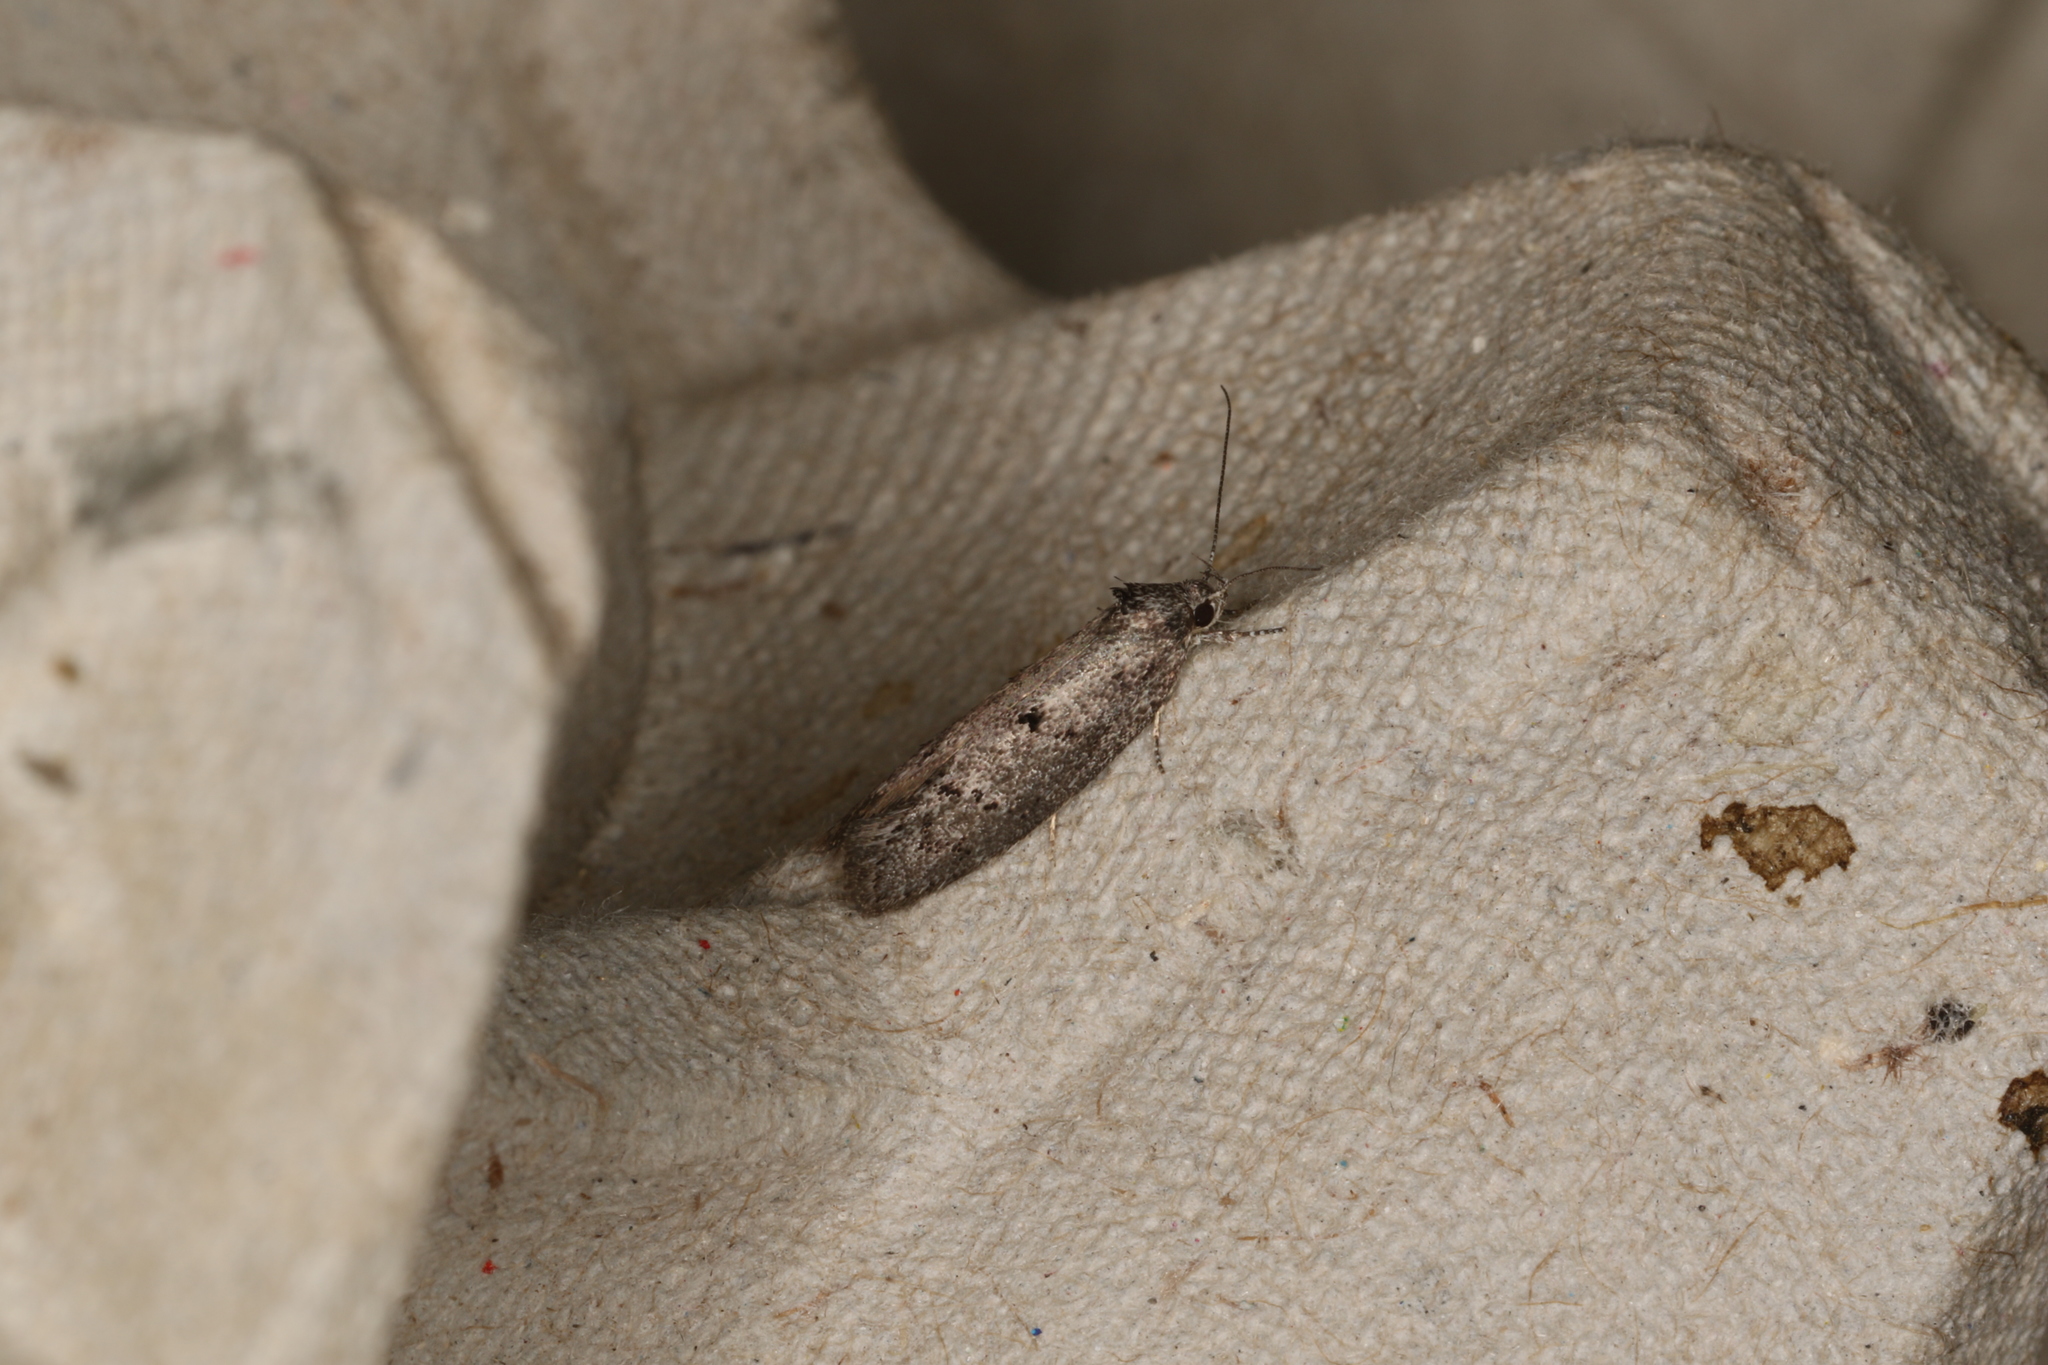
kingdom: Animalia
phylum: Arthropoda
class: Insecta
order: Lepidoptera
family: Oecophoridae
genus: Heterozyga
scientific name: Heterozyga coppatias
